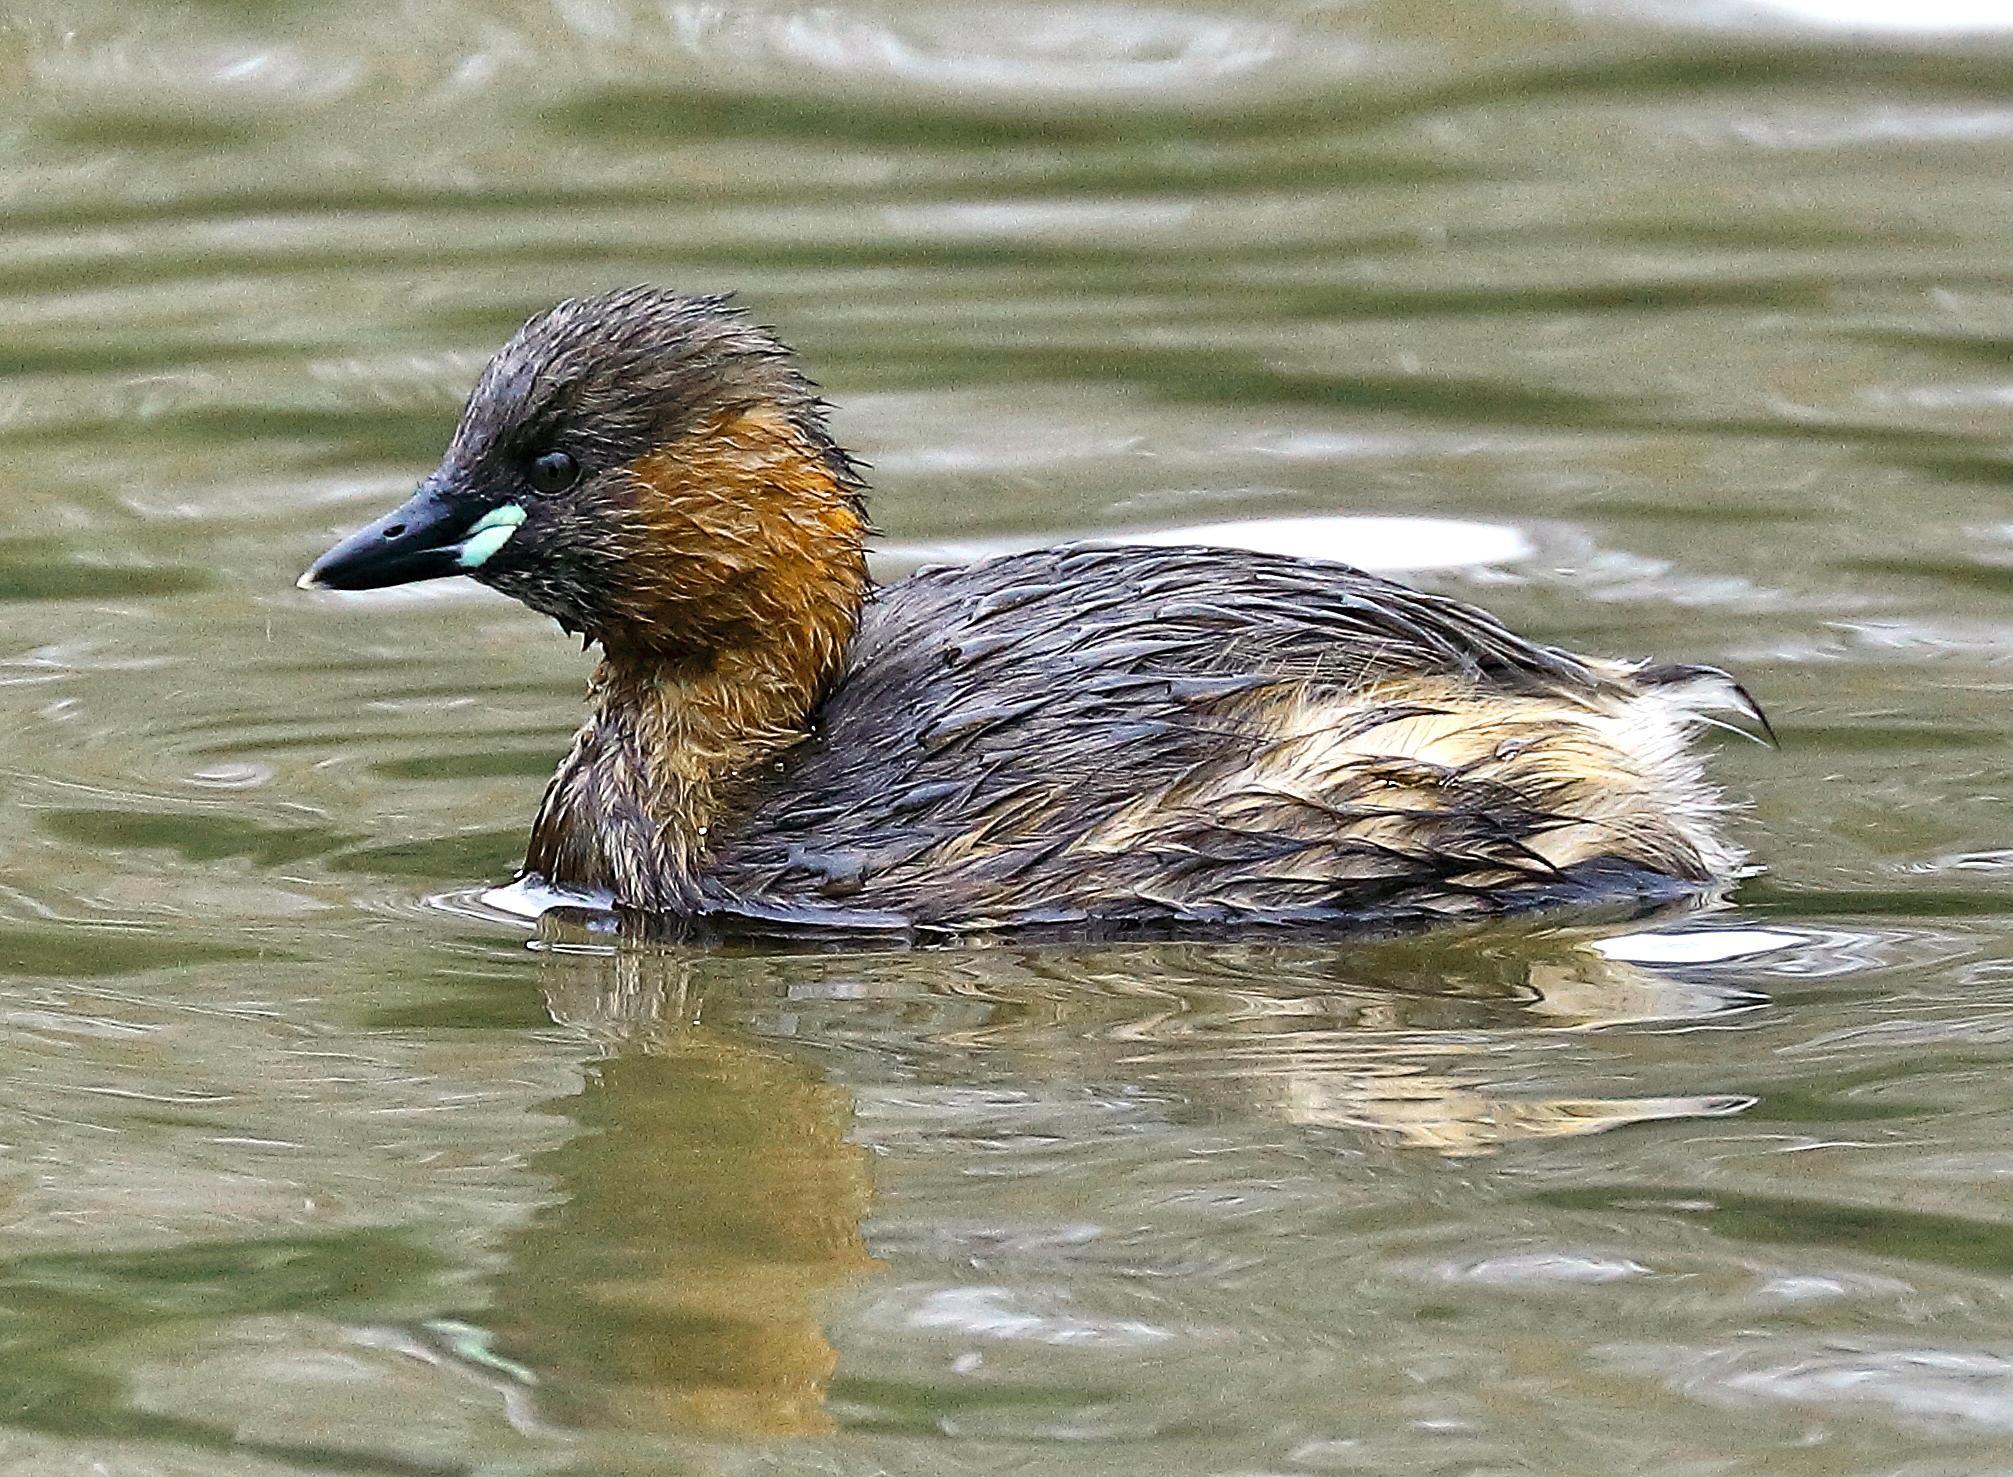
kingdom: Animalia
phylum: Chordata
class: Aves
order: Podicipediformes
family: Podicipedidae
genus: Tachybaptus
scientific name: Tachybaptus ruficollis
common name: Little grebe
